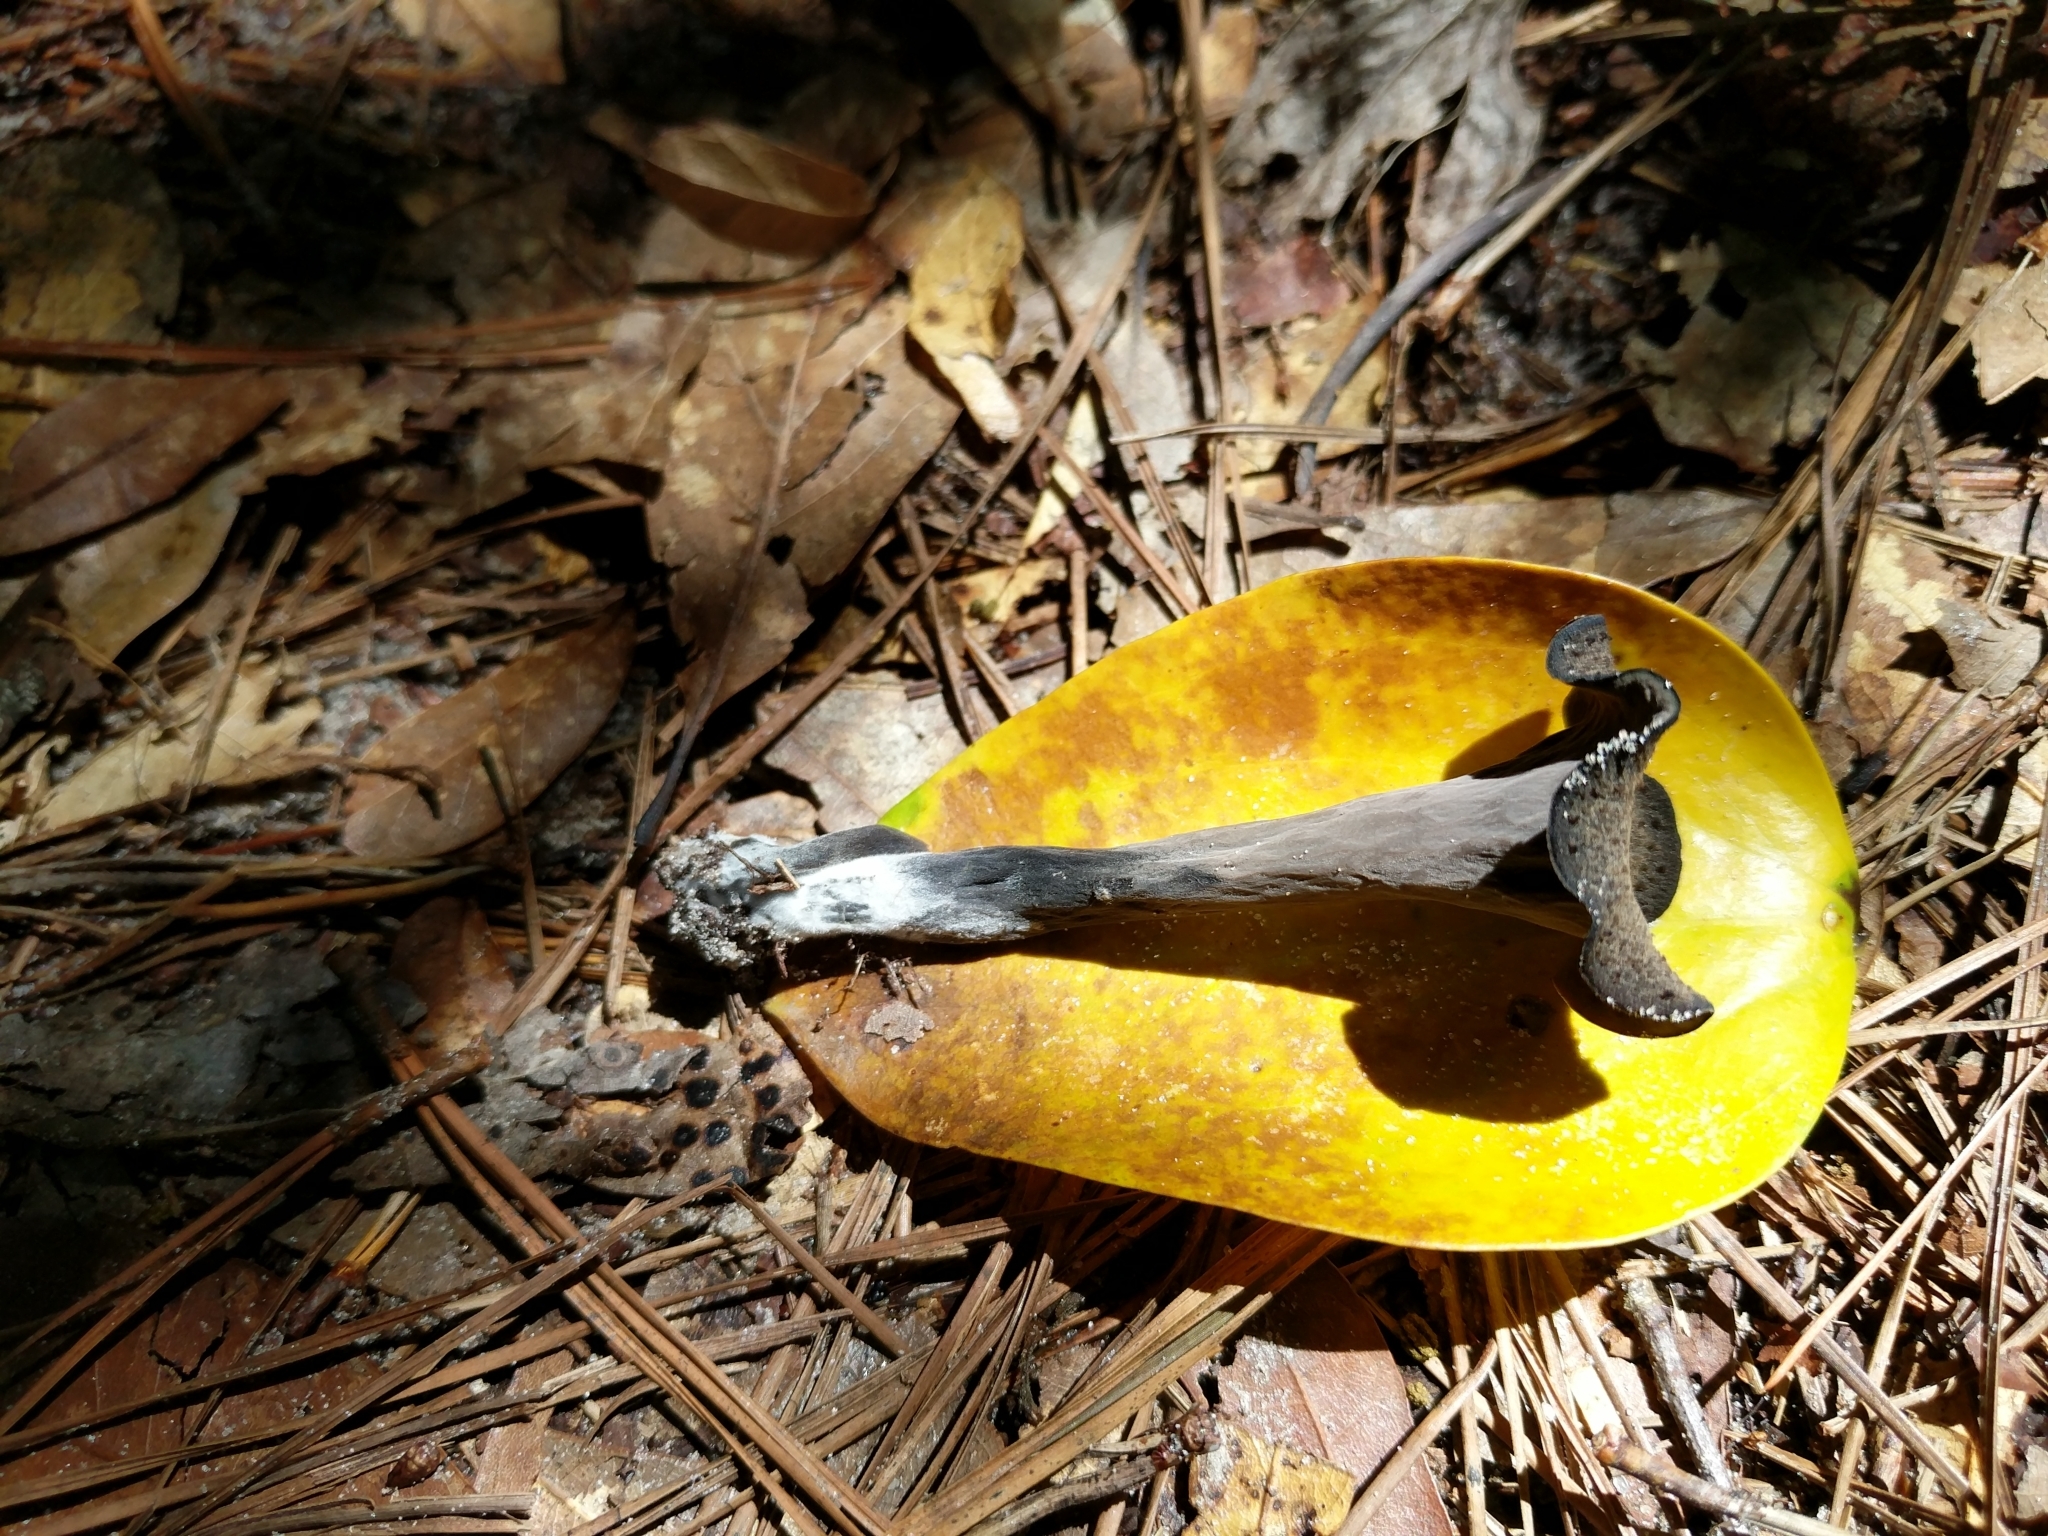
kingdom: Fungi
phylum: Basidiomycota
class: Agaricomycetes
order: Cantharellales
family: Hydnaceae
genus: Craterellus
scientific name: Craterellus cornucopioides
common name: Horn of plenty
